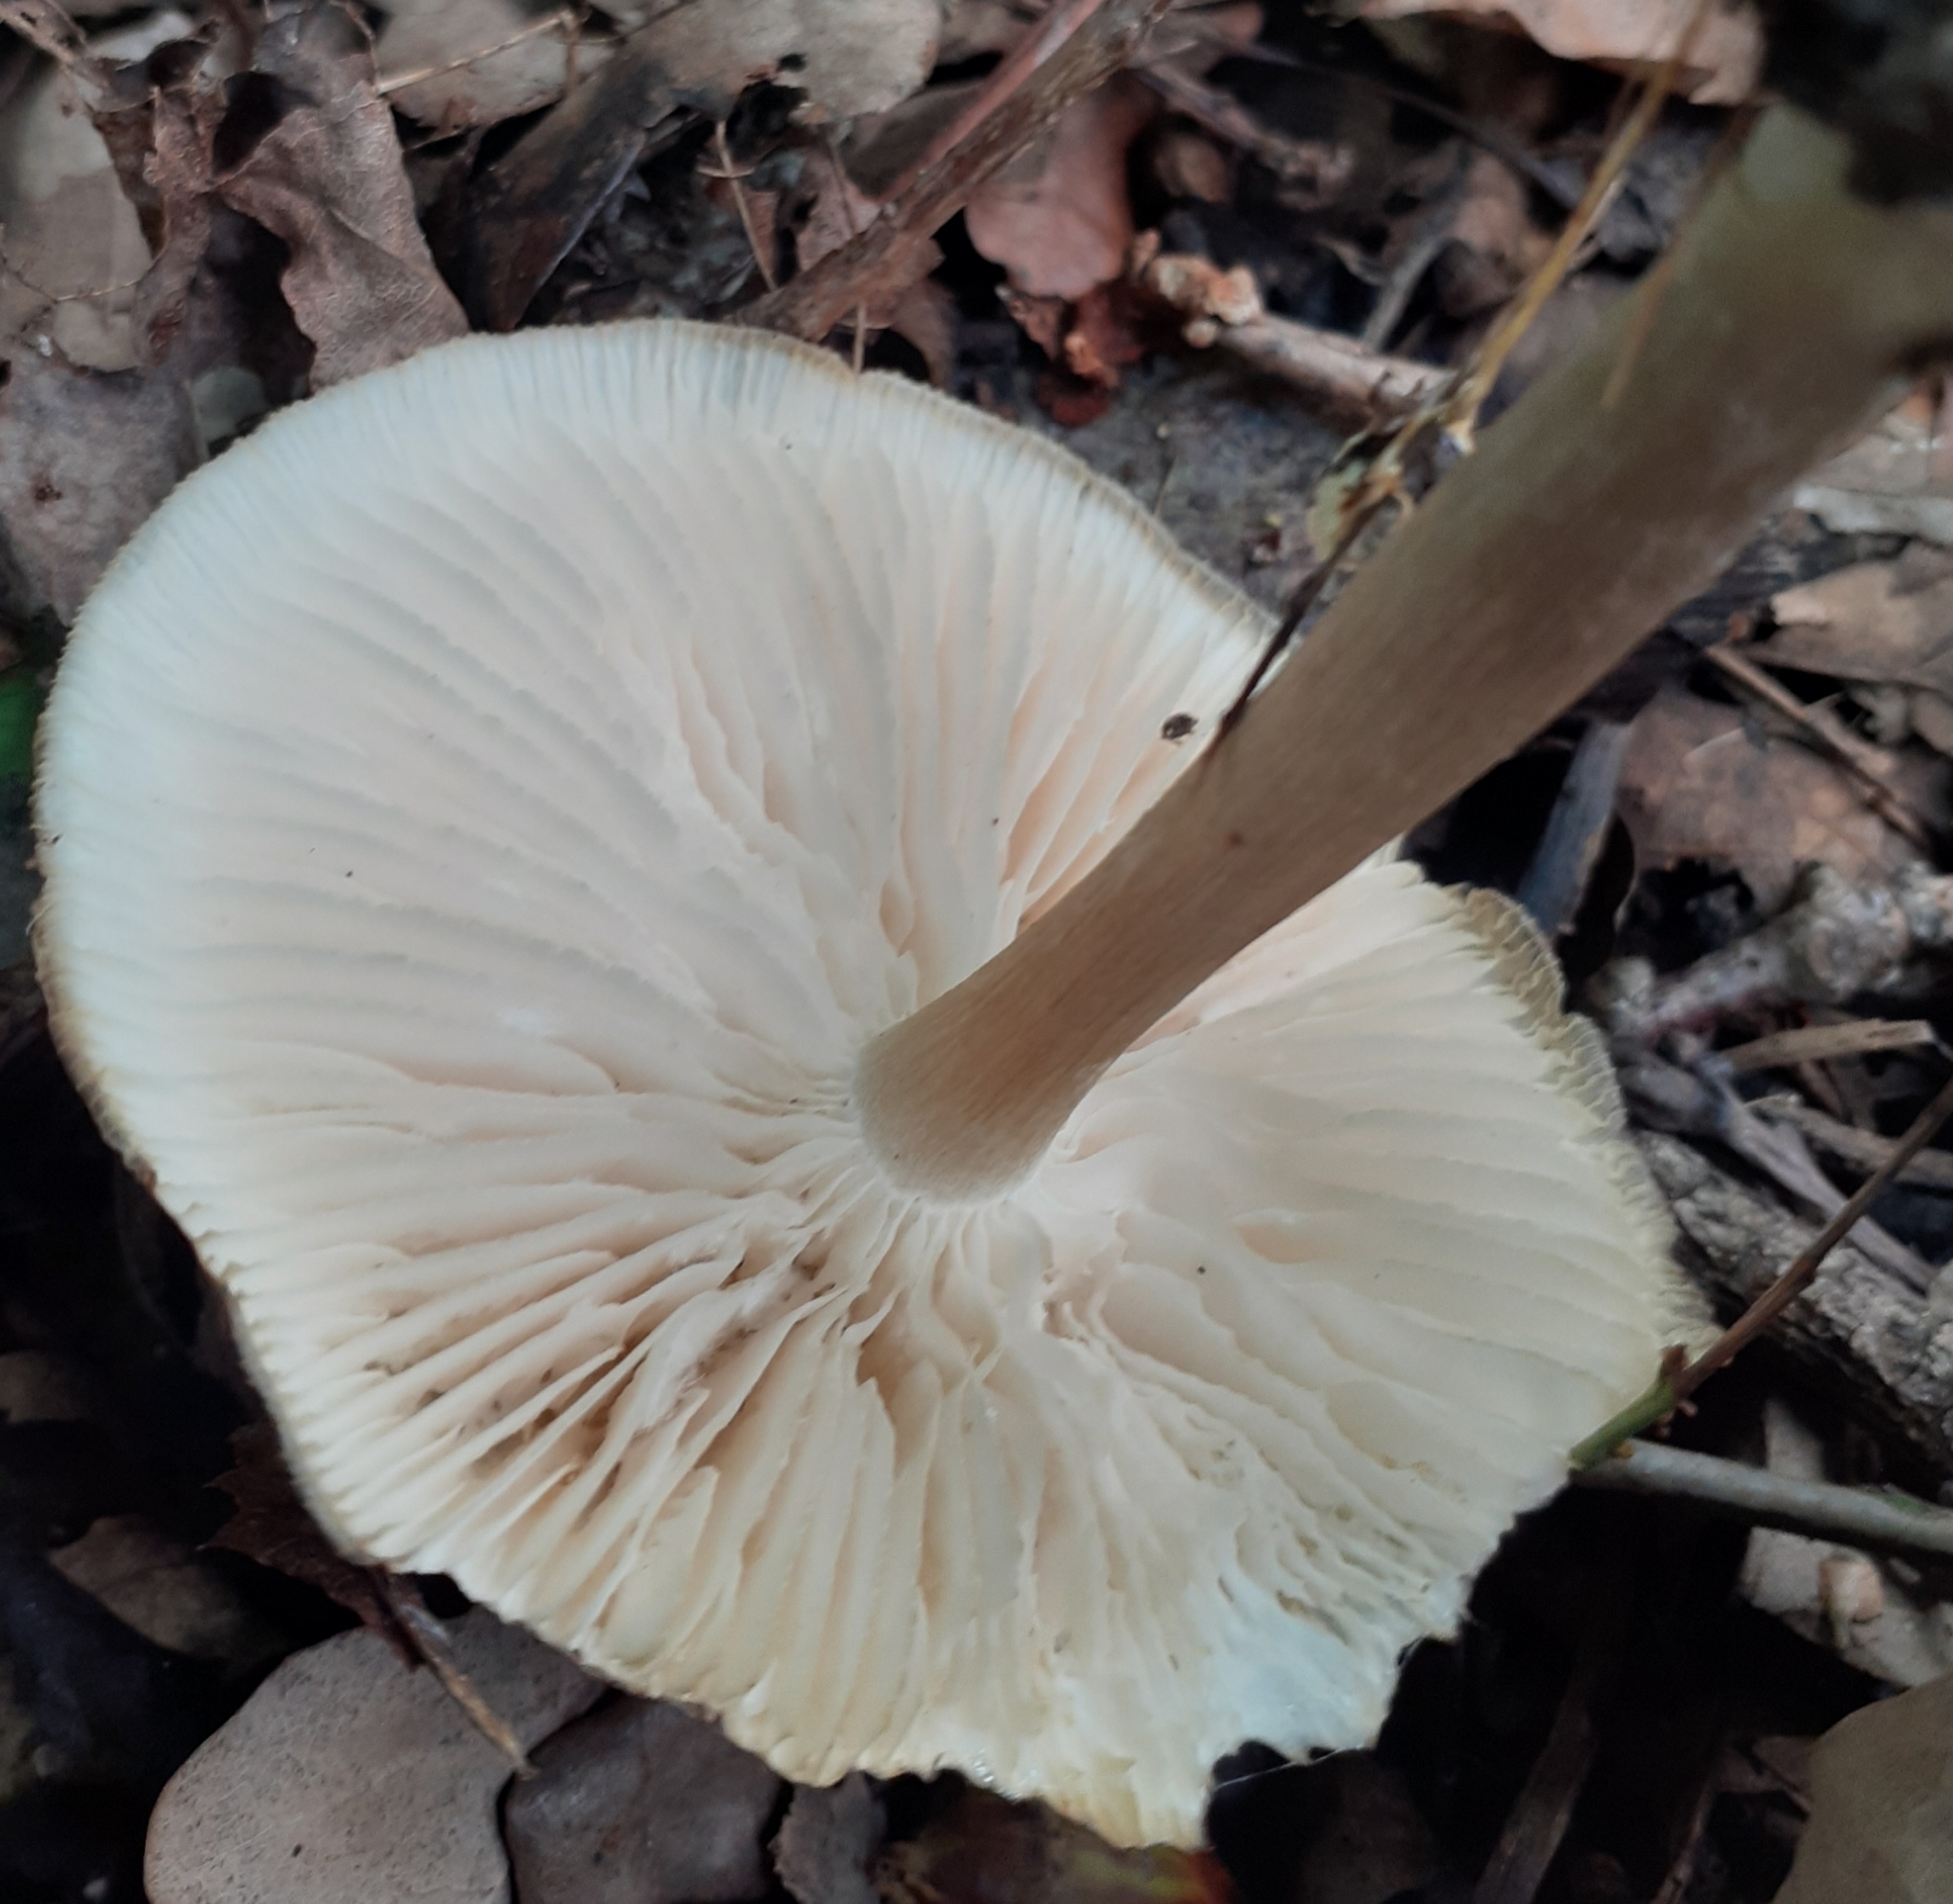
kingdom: Fungi
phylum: Basidiomycota
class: Agaricomycetes
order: Agaricales
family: Tricholomataceae
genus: Megacollybia
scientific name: Megacollybia platyphylla
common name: Whitelaced shank
